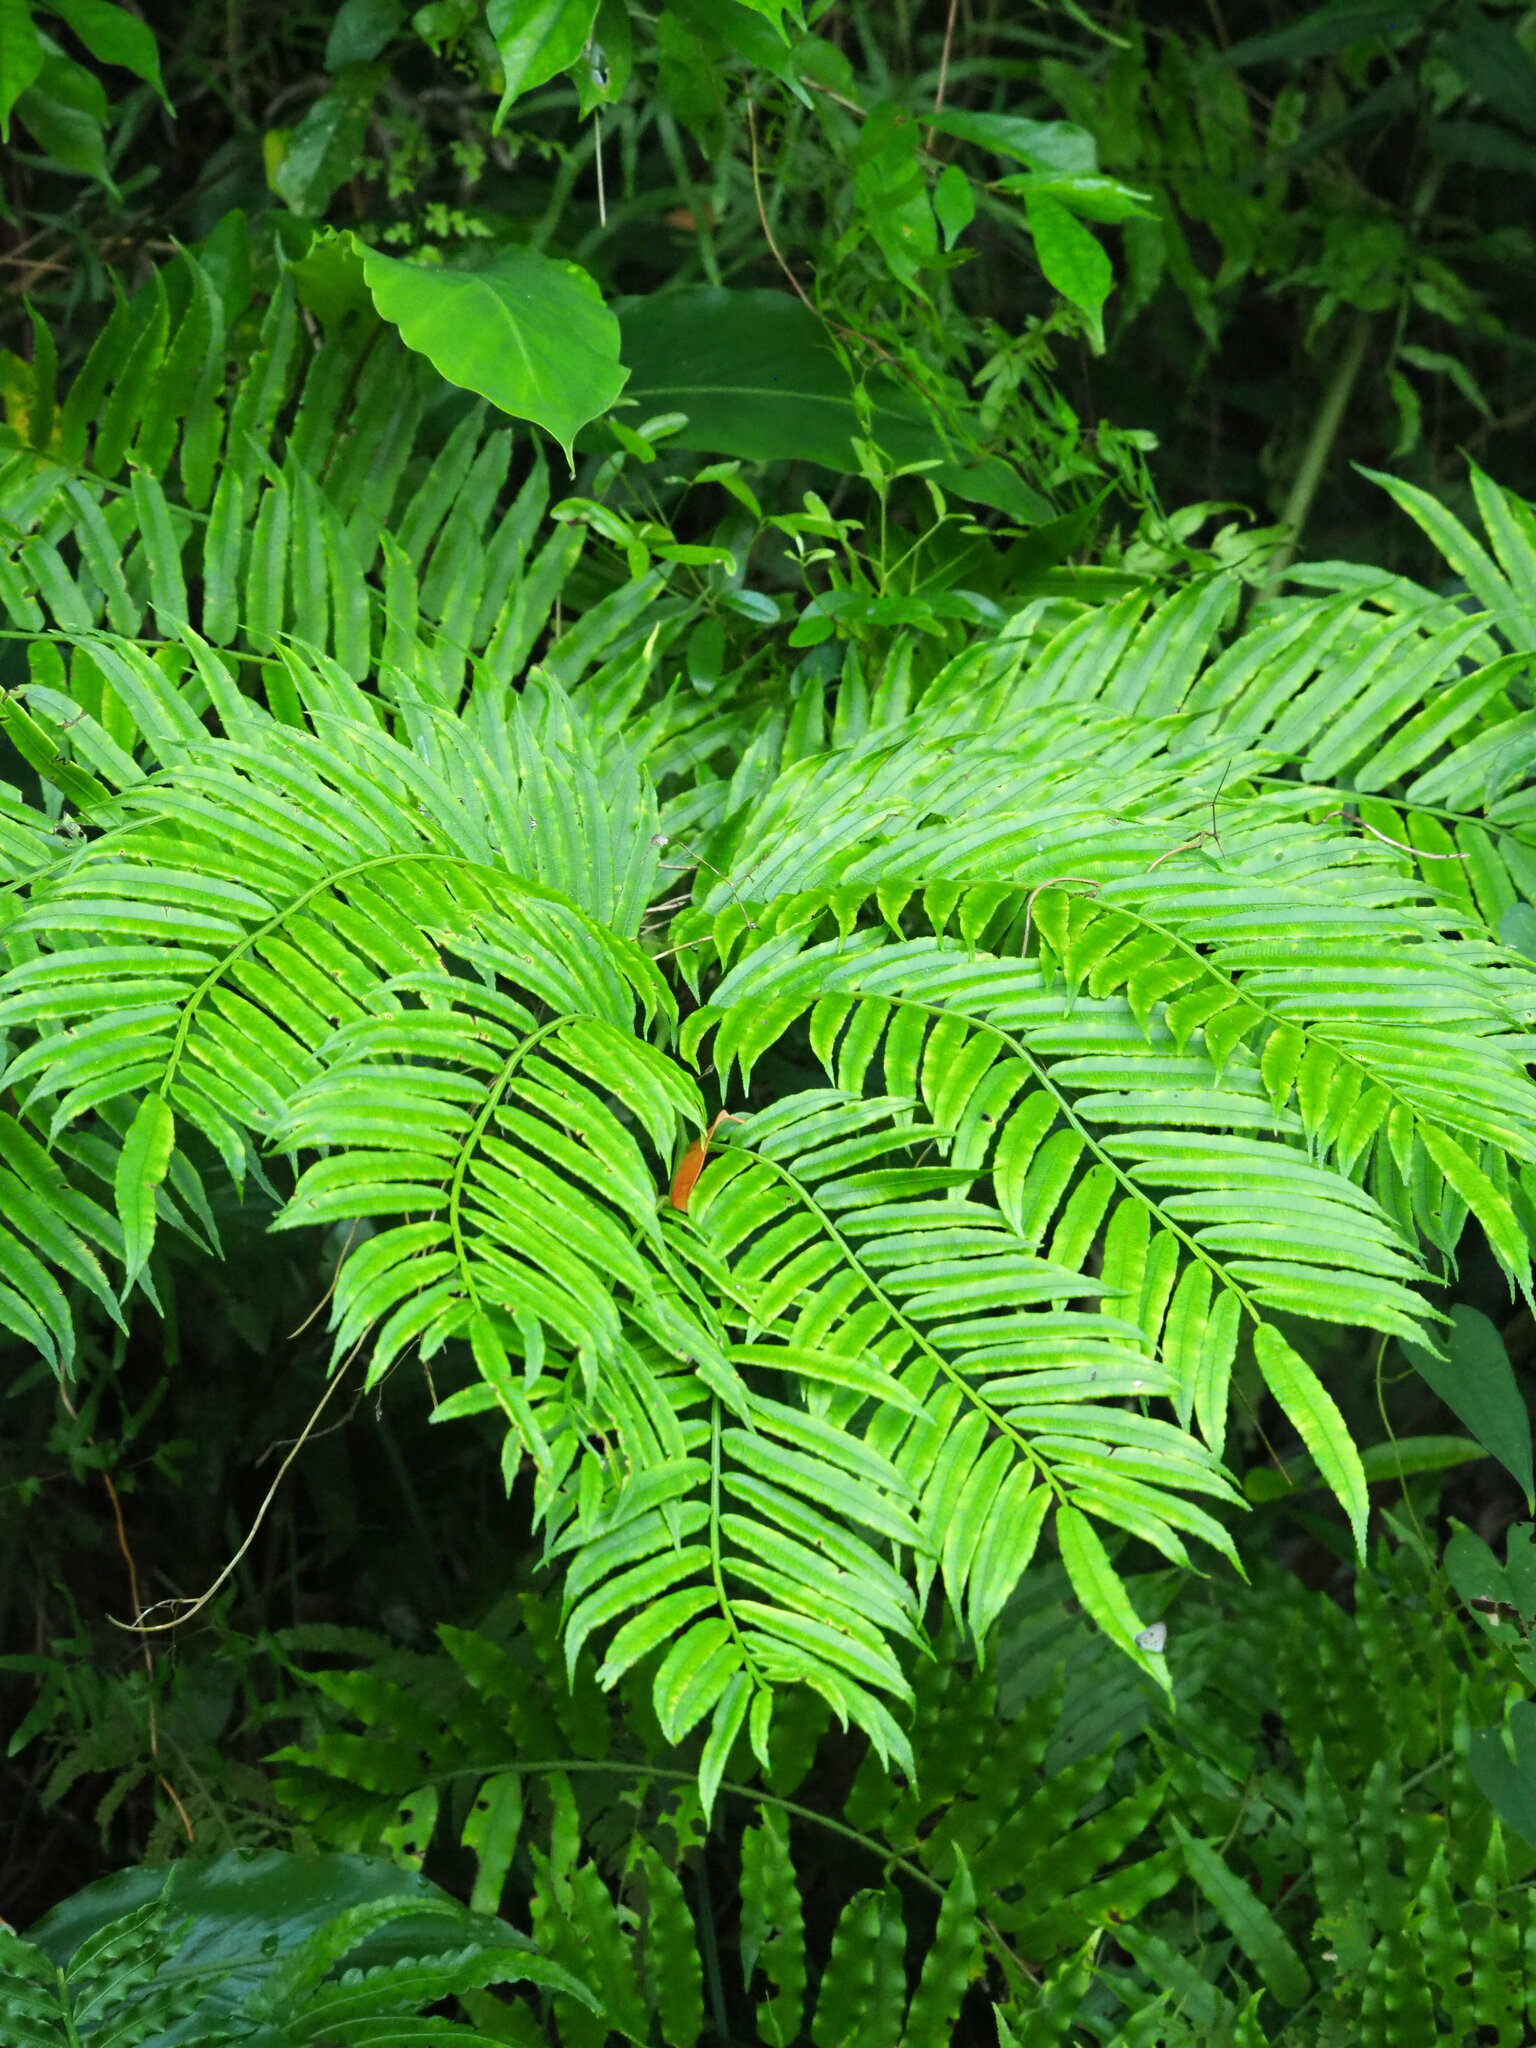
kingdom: Plantae
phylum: Tracheophyta
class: Polypodiopsida
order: Marattiales
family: Marattiaceae
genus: Angiopteris
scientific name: Angiopteris lygodiifolia
